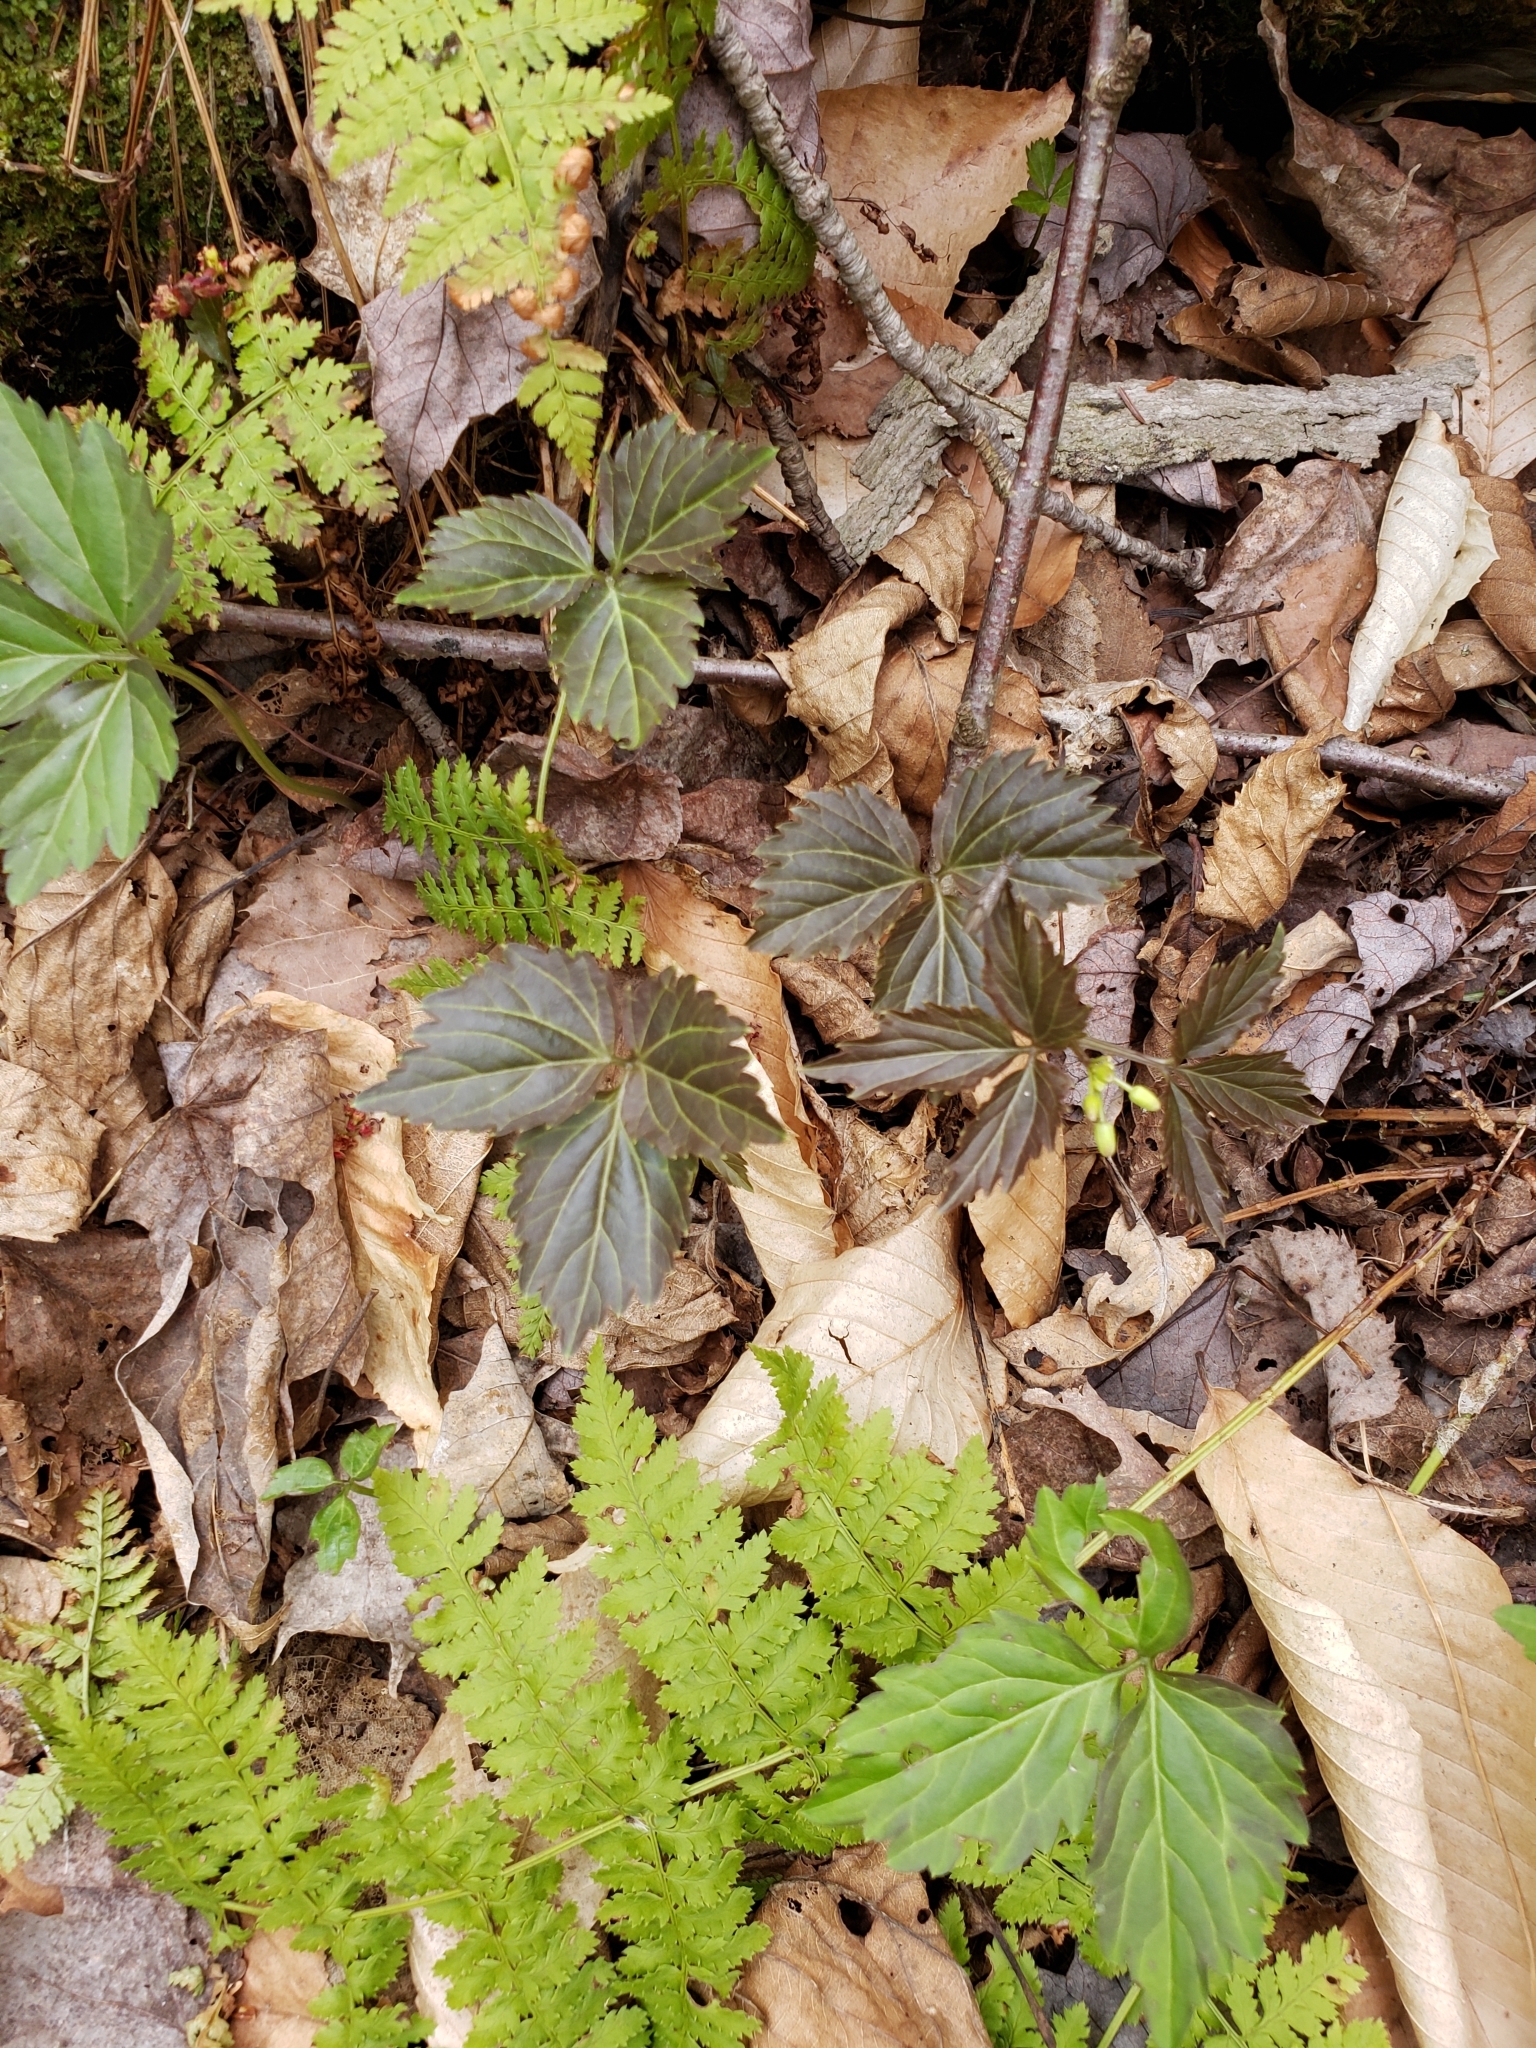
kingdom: Plantae
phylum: Tracheophyta
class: Magnoliopsida
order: Brassicales
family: Brassicaceae
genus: Cardamine
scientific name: Cardamine diphylla
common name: Broad-leaved toothwort
